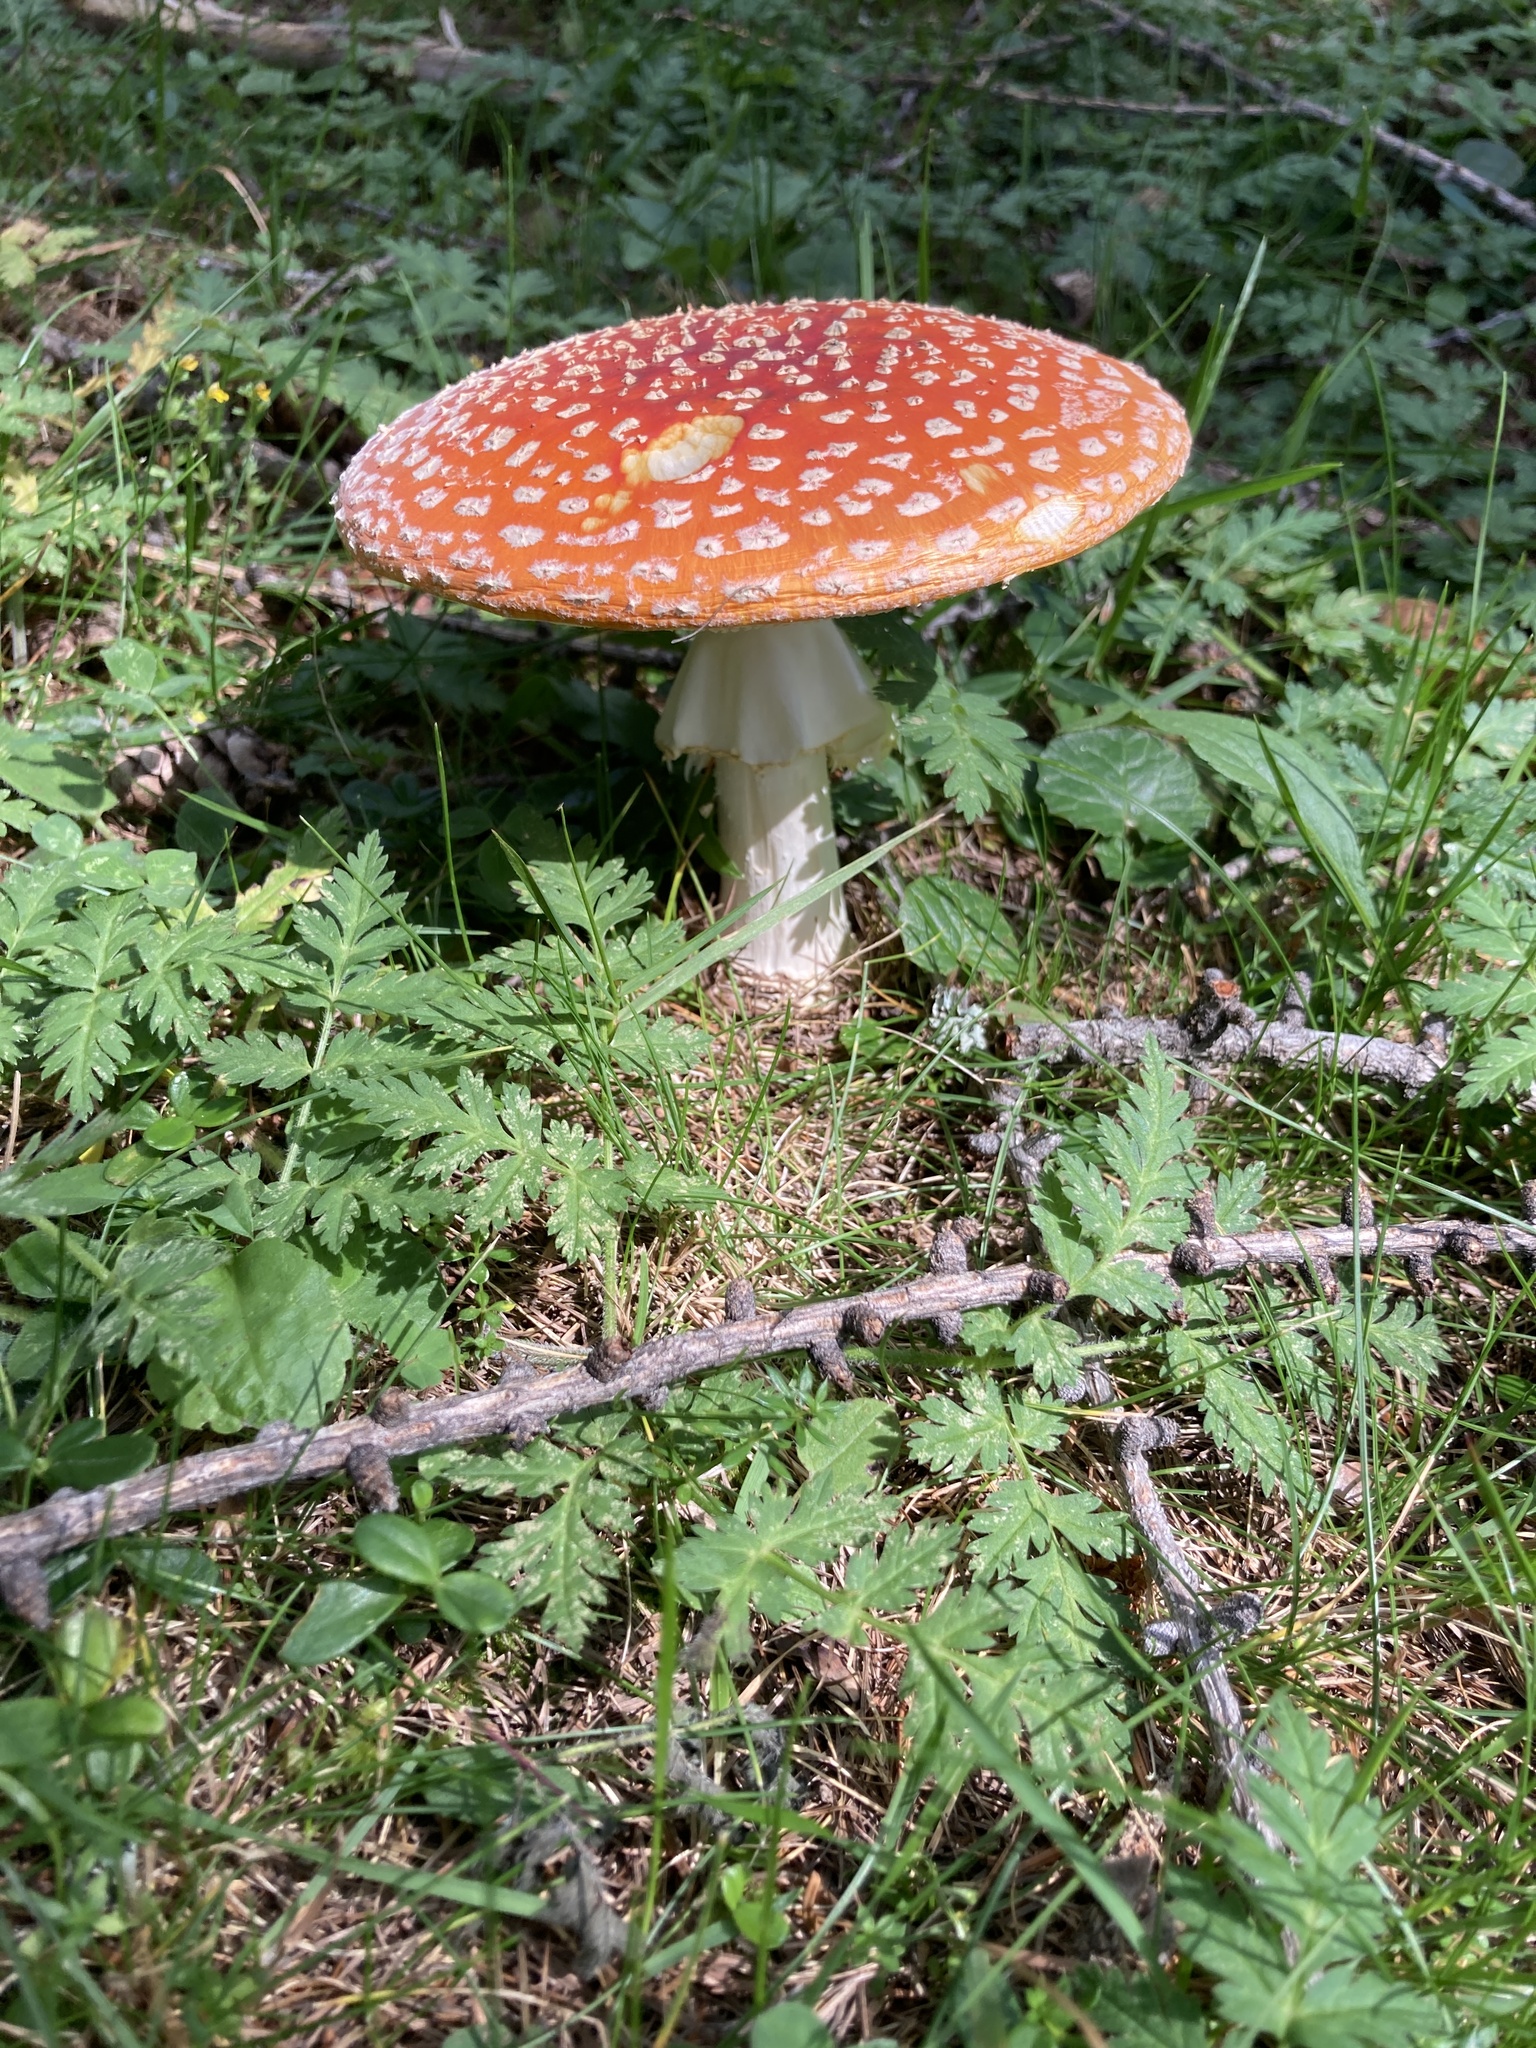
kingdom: Fungi
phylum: Basidiomycota
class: Agaricomycetes
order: Agaricales
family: Amanitaceae
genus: Amanita
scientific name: Amanita muscaria
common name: Fly agaric
